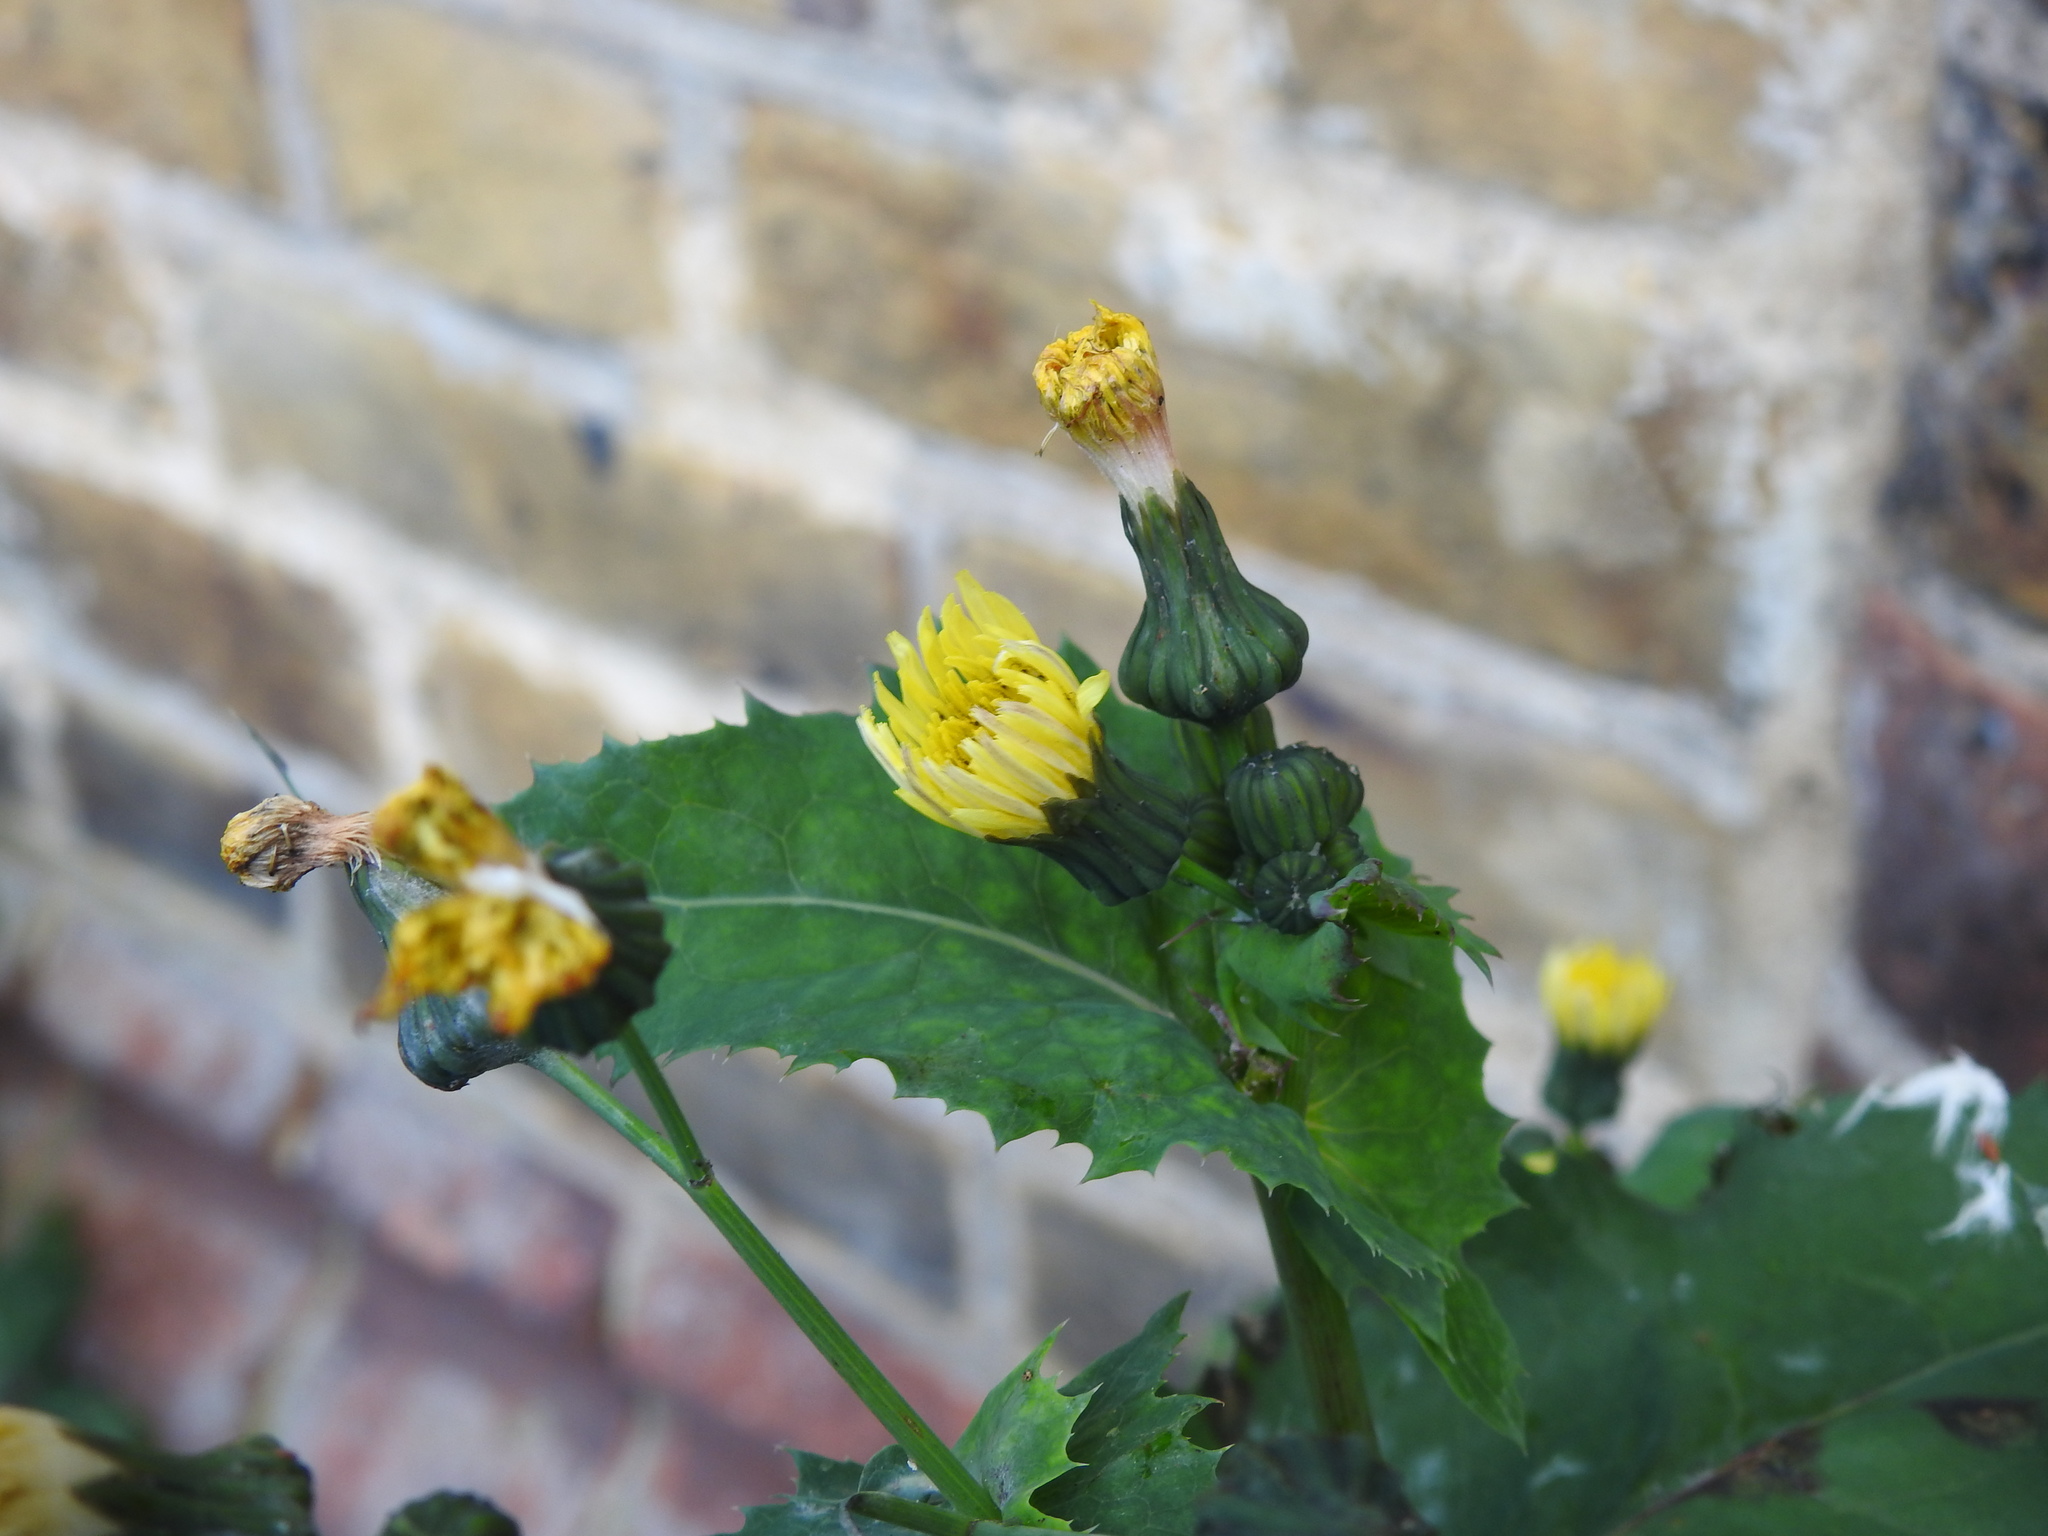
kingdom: Plantae
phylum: Tracheophyta
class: Magnoliopsida
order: Asterales
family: Asteraceae
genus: Sonchus
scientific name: Sonchus oleraceus
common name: Common sowthistle
